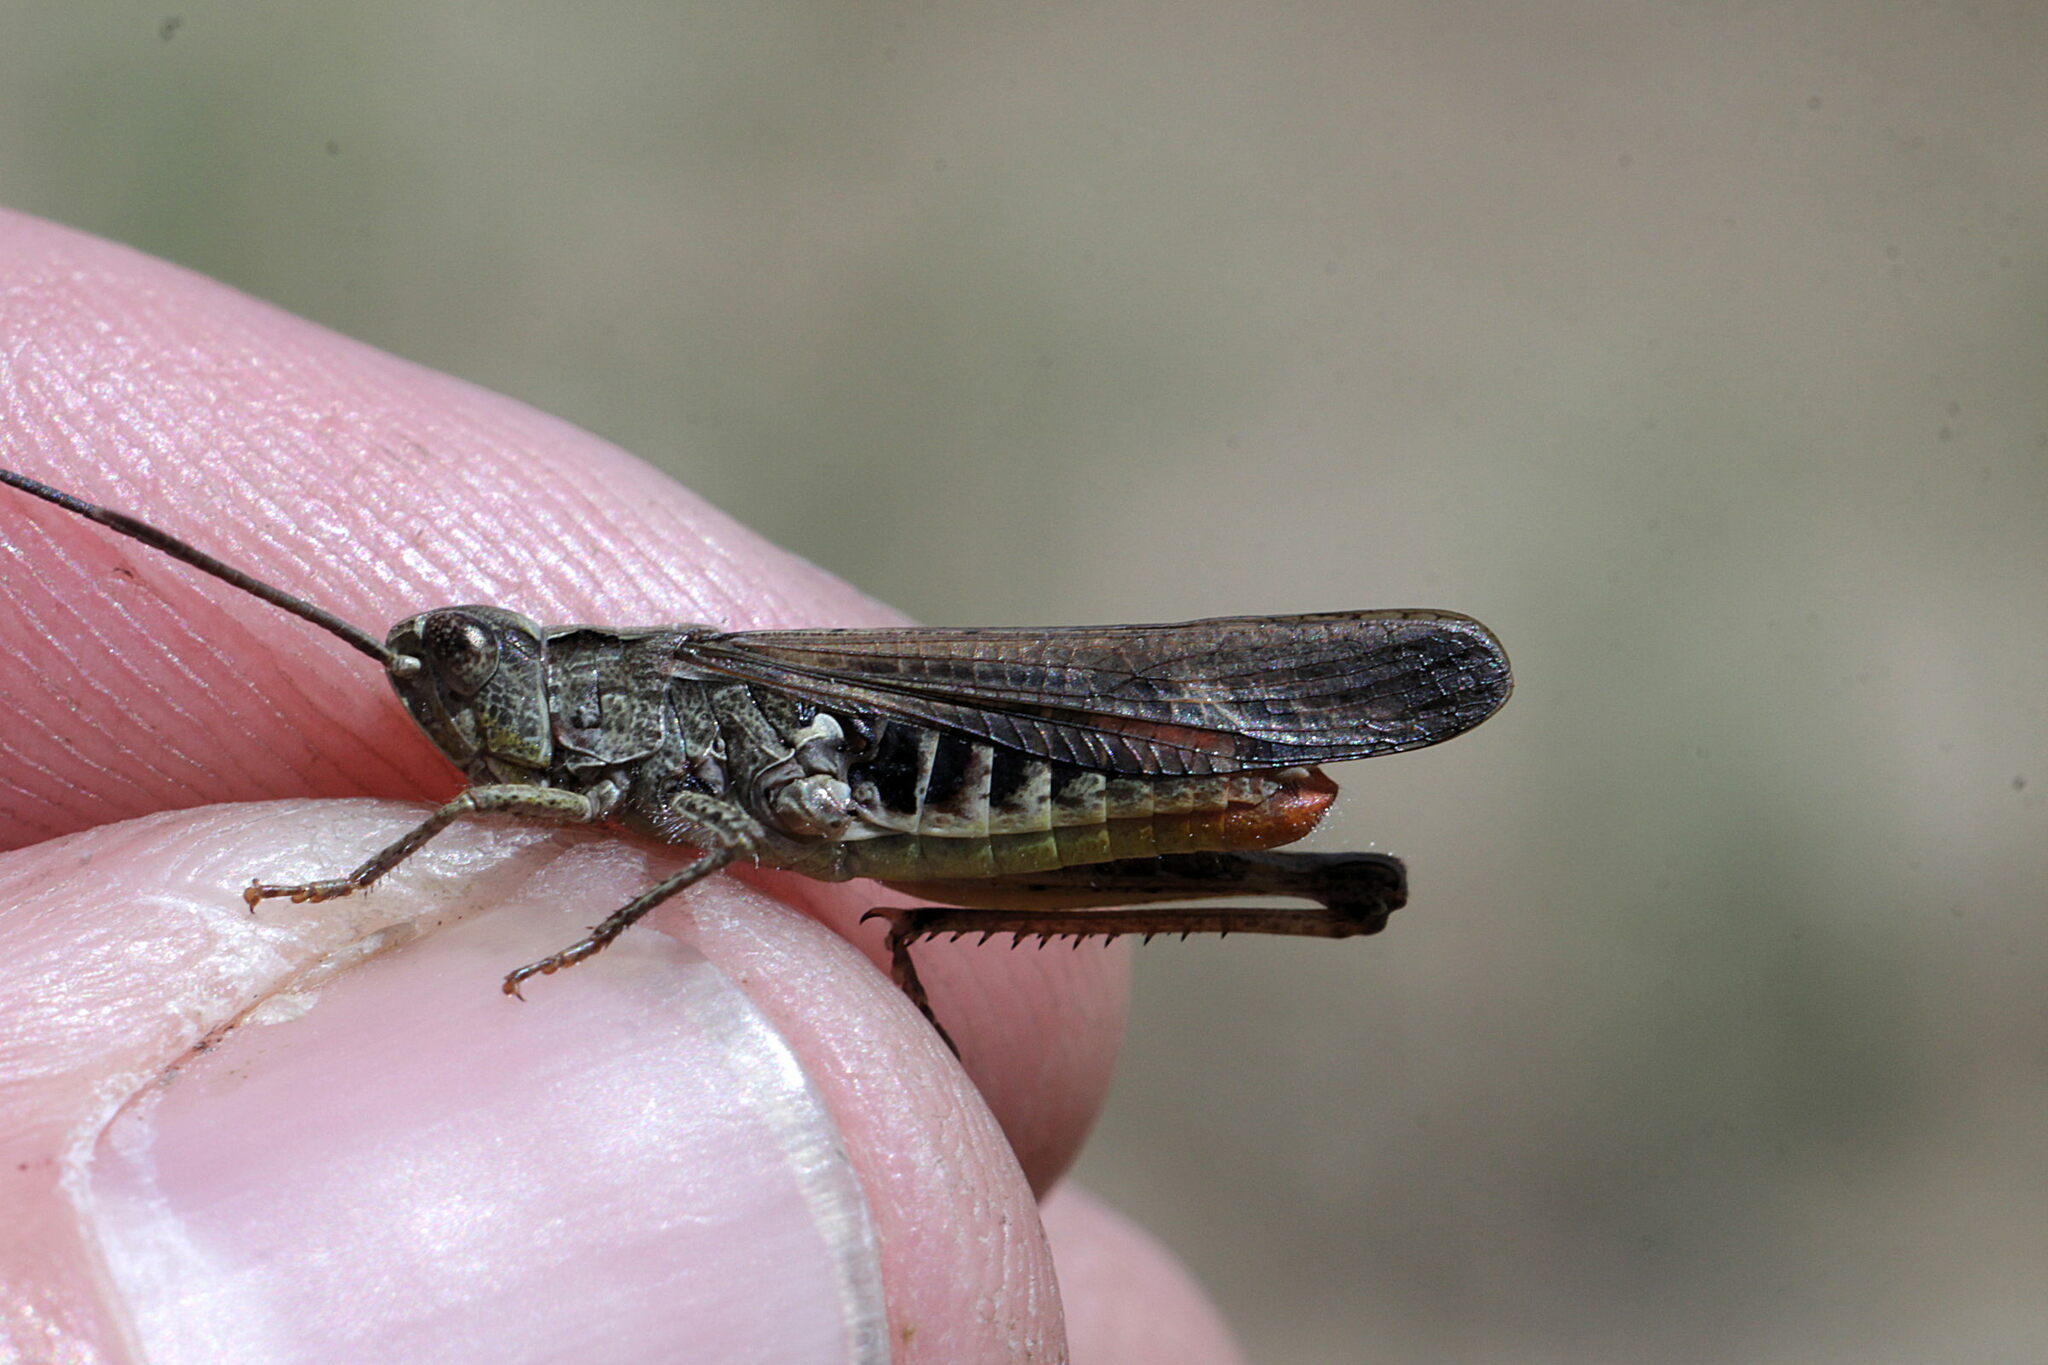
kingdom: Animalia
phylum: Arthropoda
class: Insecta
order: Orthoptera
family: Acrididae
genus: Chorthippus
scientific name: Chorthippus brunneus
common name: Field grasshopper
